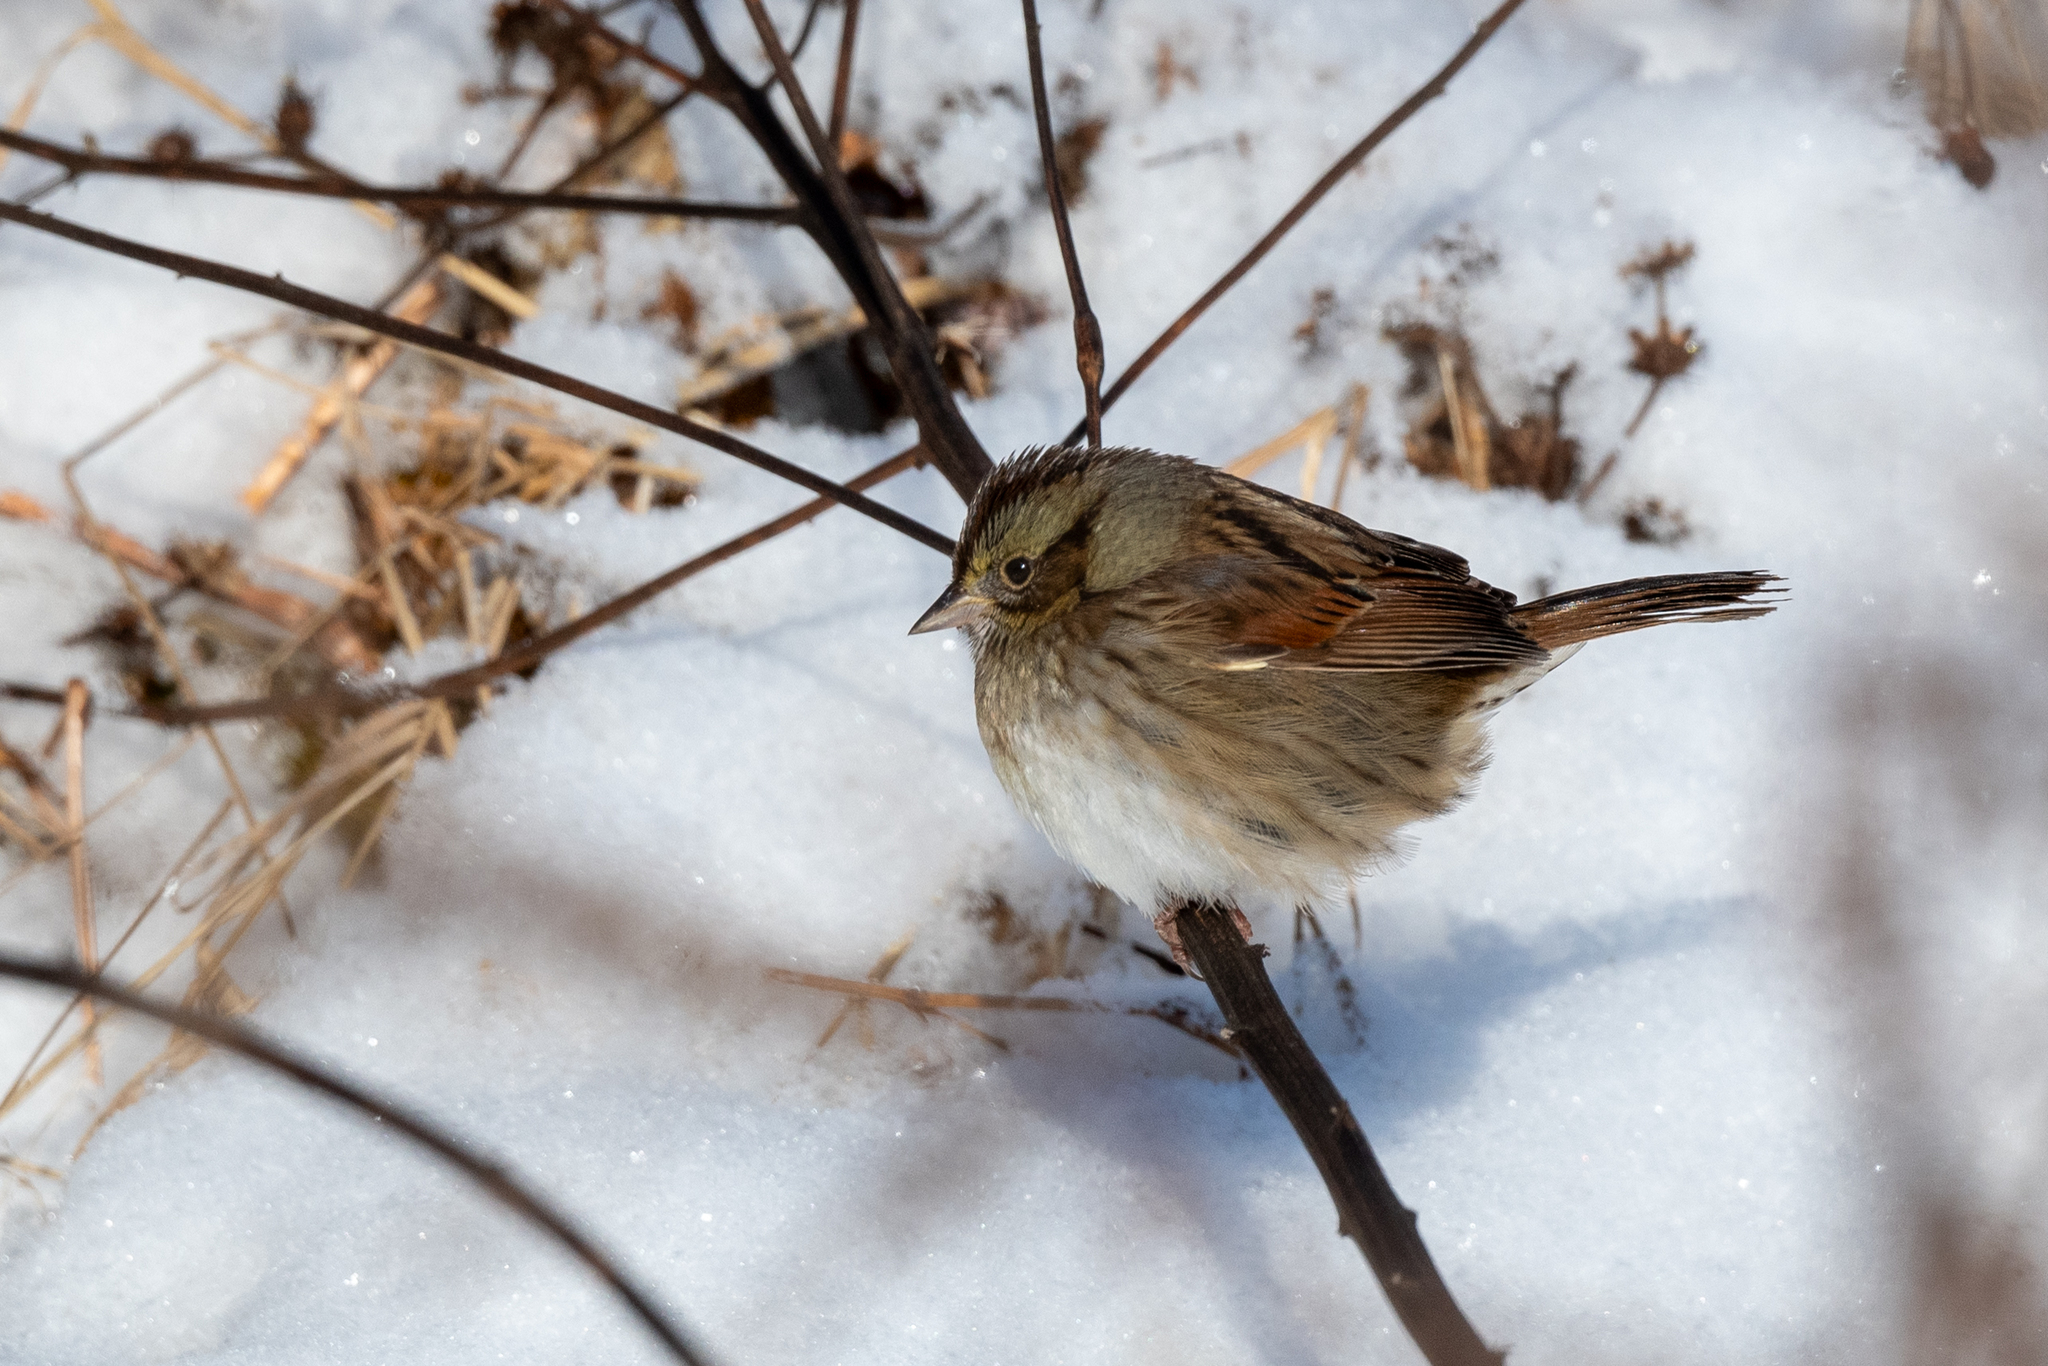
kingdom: Animalia
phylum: Chordata
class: Aves
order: Passeriformes
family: Passerellidae
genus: Melospiza
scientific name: Melospiza georgiana
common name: Swamp sparrow
